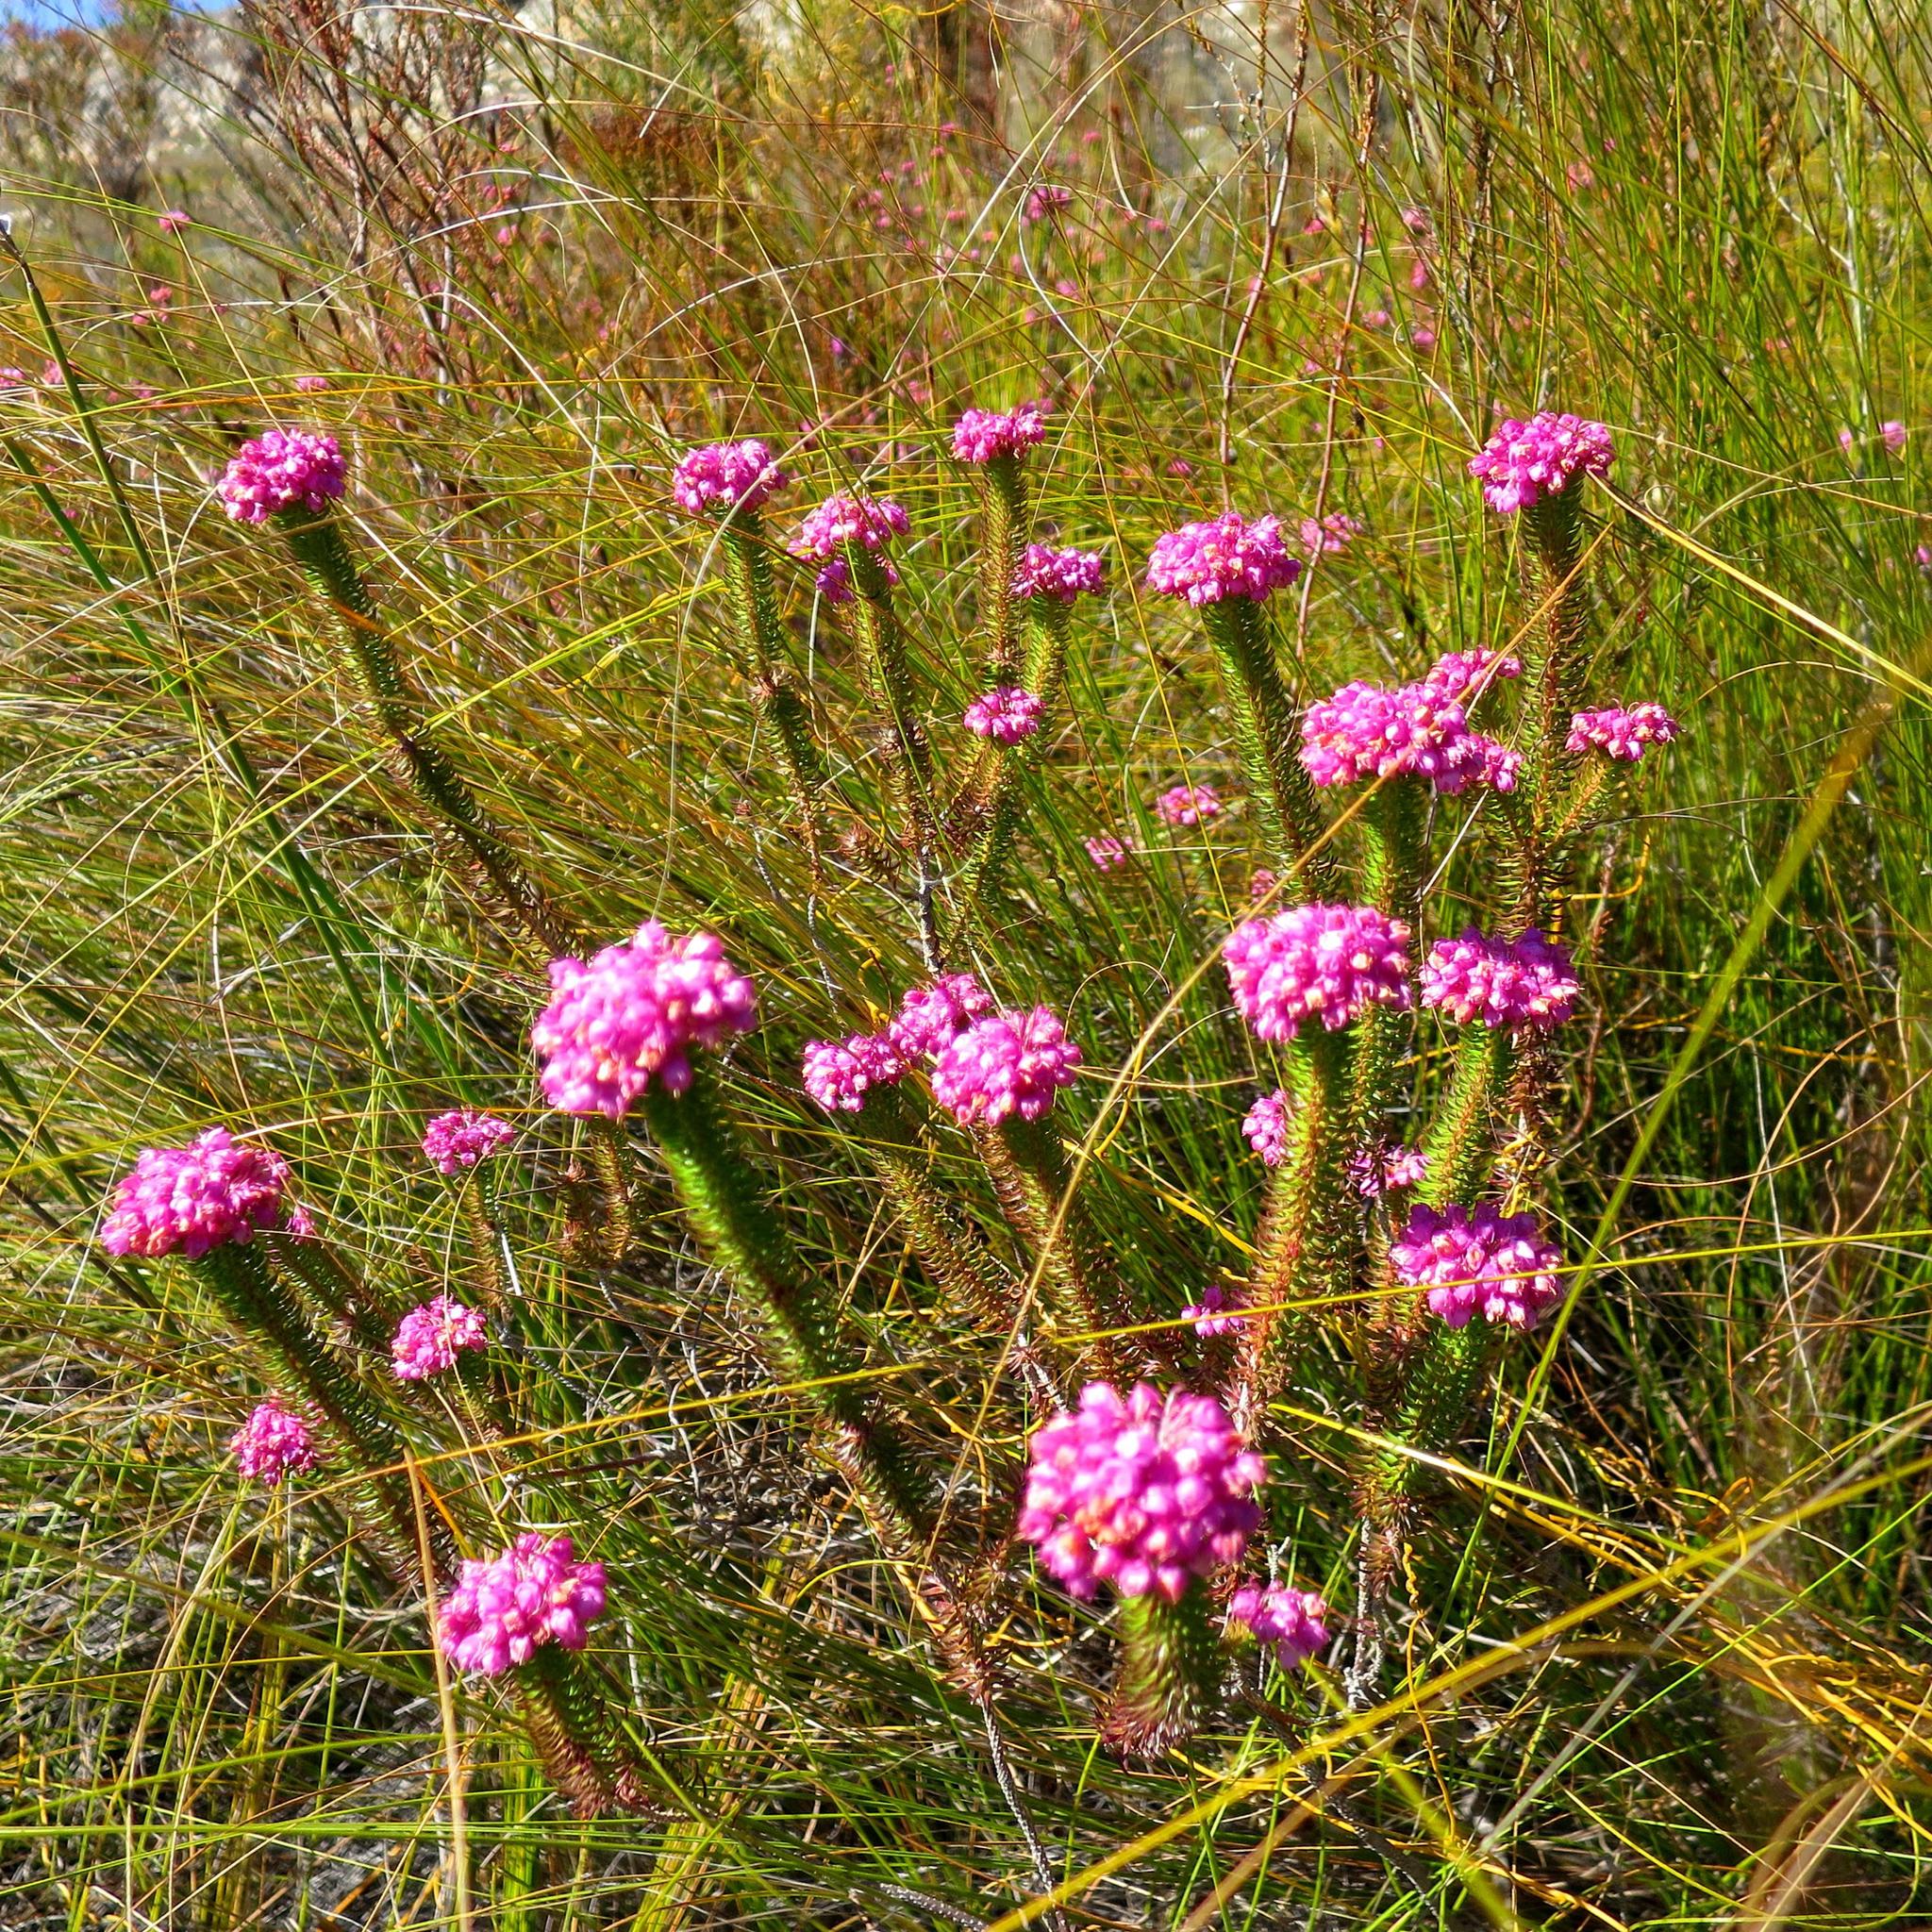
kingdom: Plantae
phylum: Tracheophyta
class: Magnoliopsida
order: Ericales
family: Ericaceae
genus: Erica
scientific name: Erica cubica
